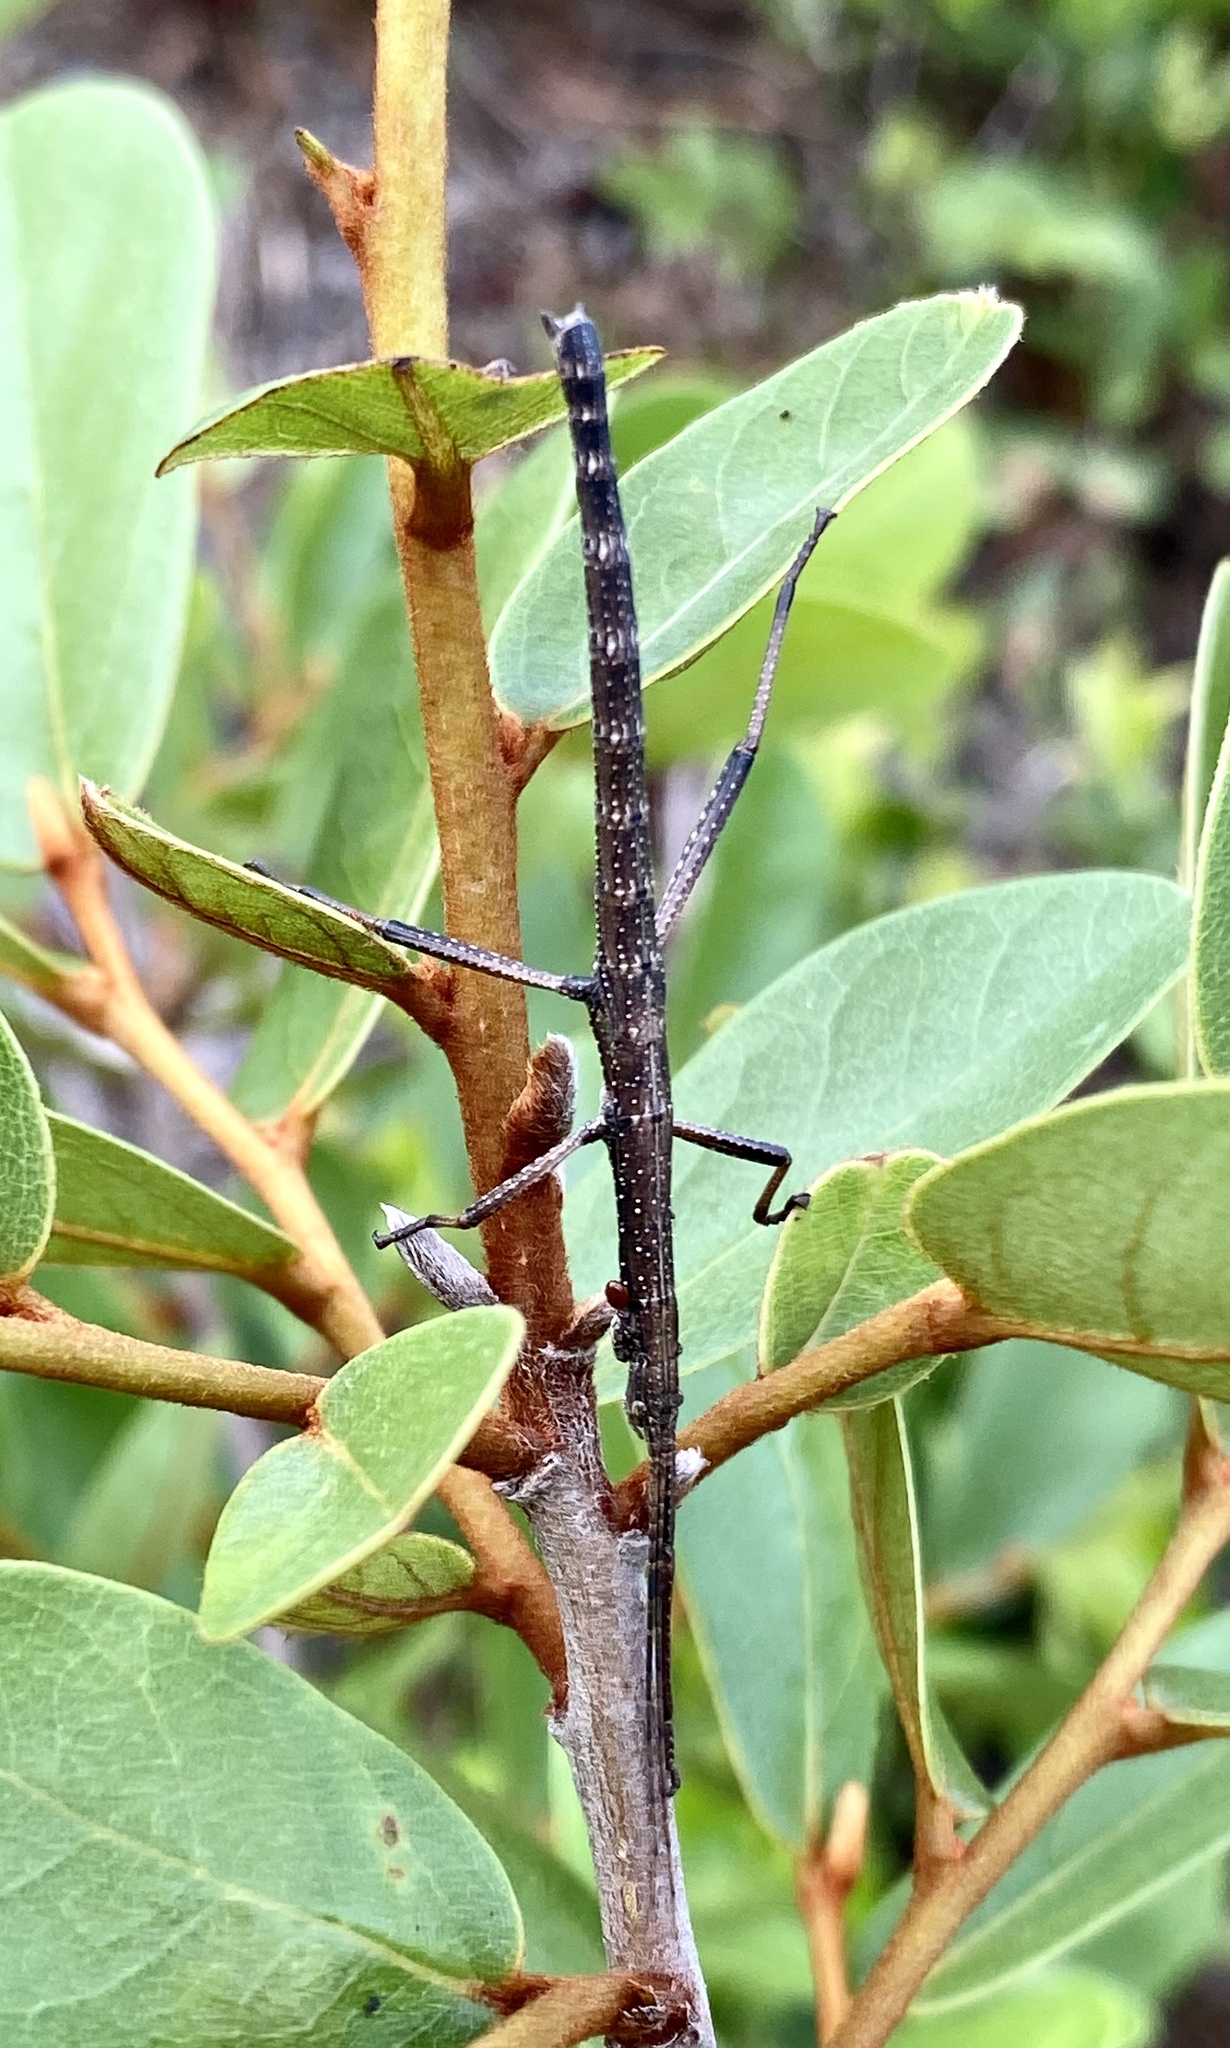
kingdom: Animalia
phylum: Arthropoda
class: Insecta
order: Phasmida
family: Pseudophasmatidae
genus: Anisomorpha
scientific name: Anisomorpha buprestoides
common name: Florida stick insect
